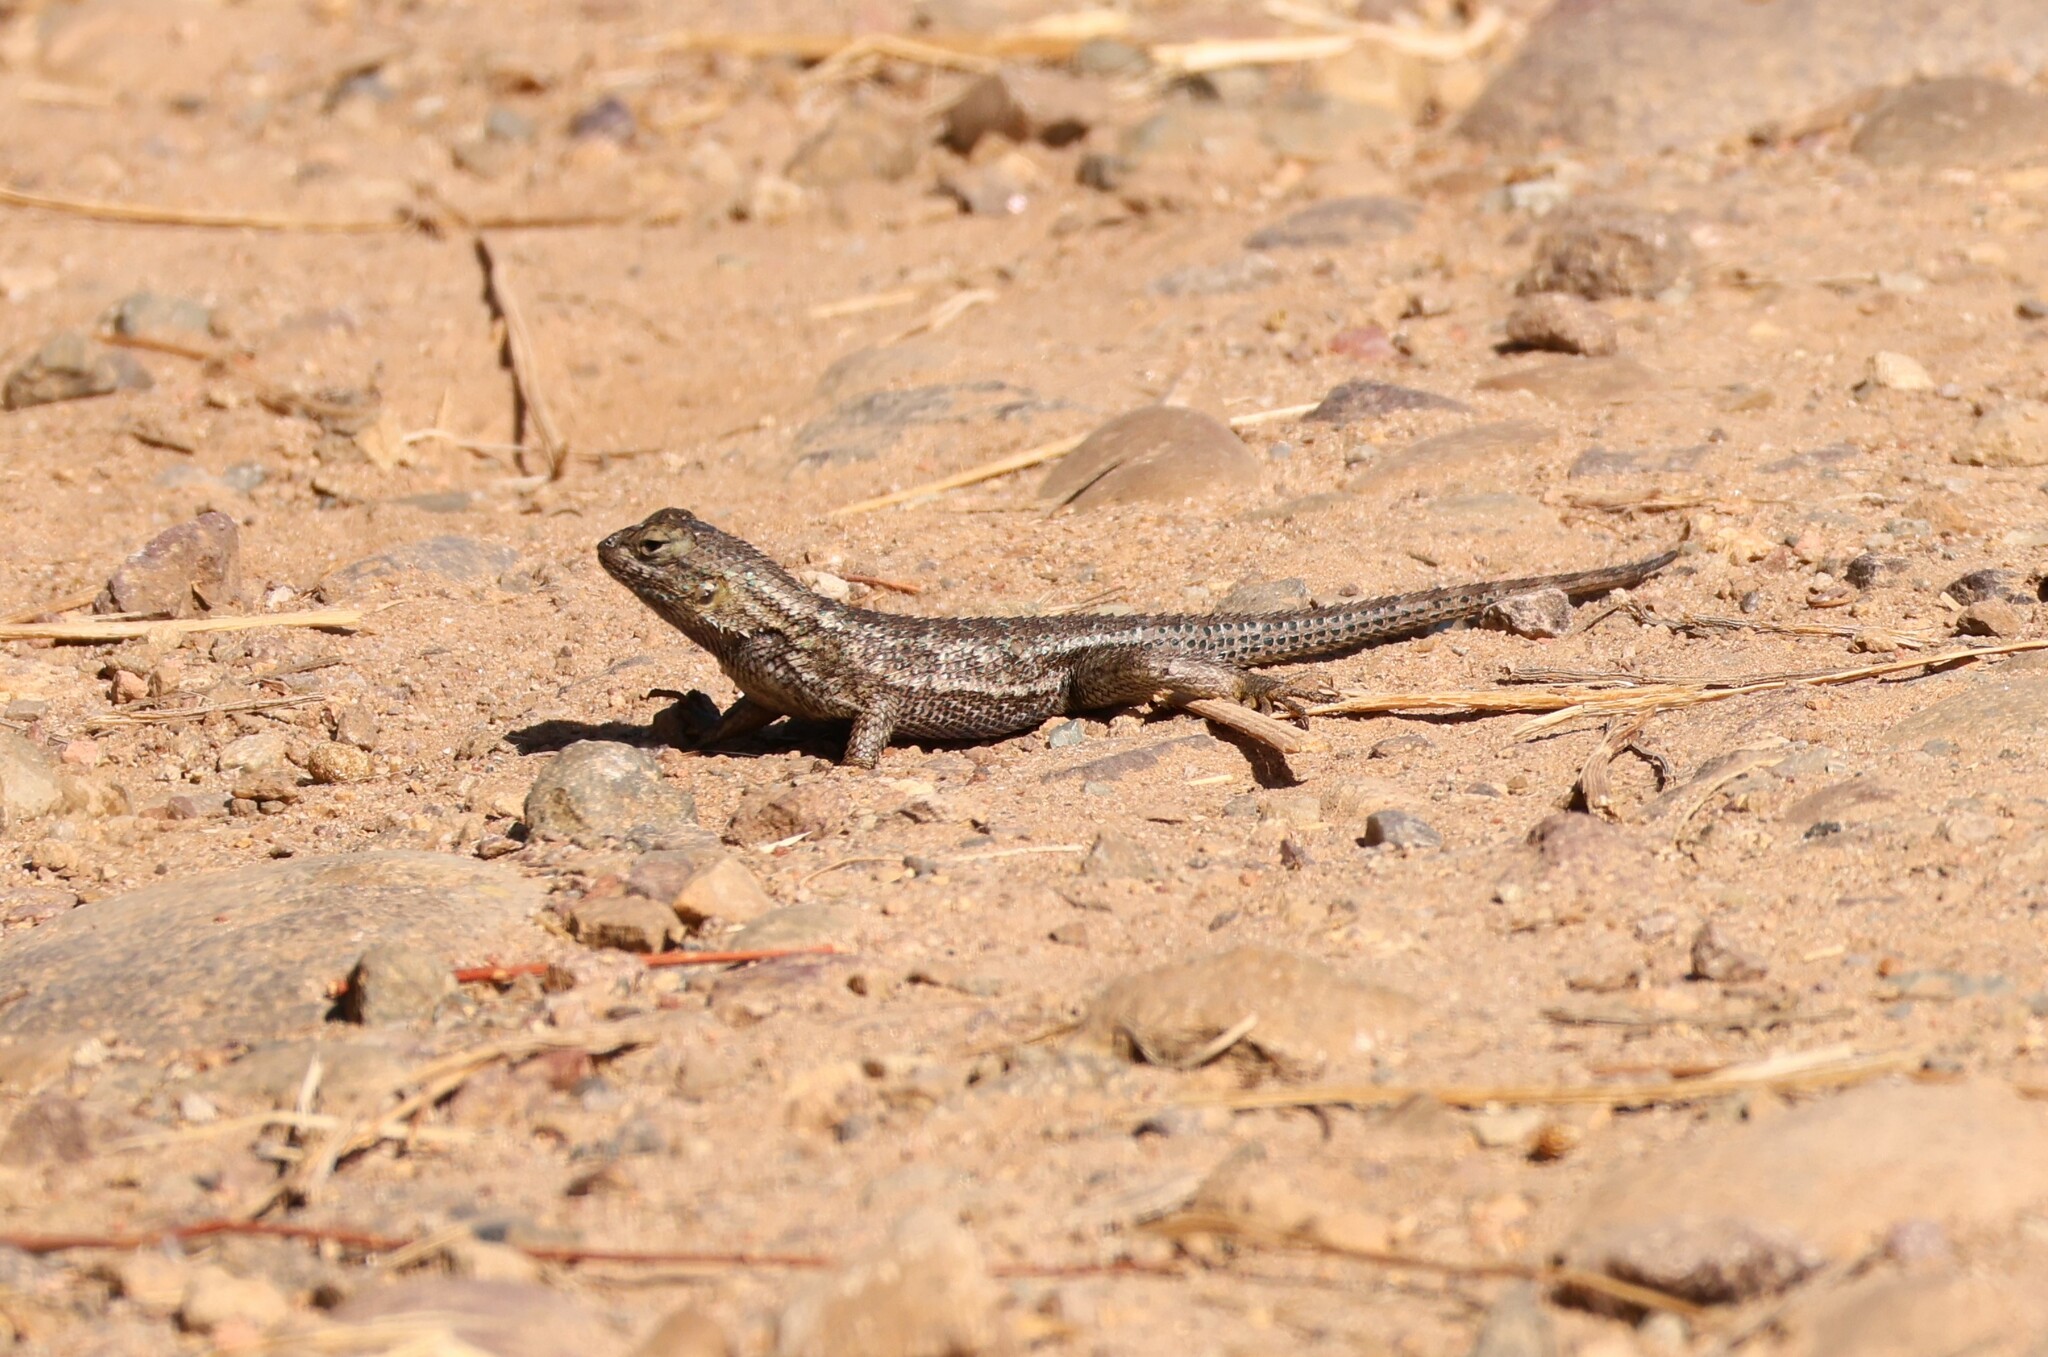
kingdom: Animalia
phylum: Chordata
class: Squamata
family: Phrynosomatidae
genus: Sceloporus
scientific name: Sceloporus occidentalis
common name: Western fence lizard
